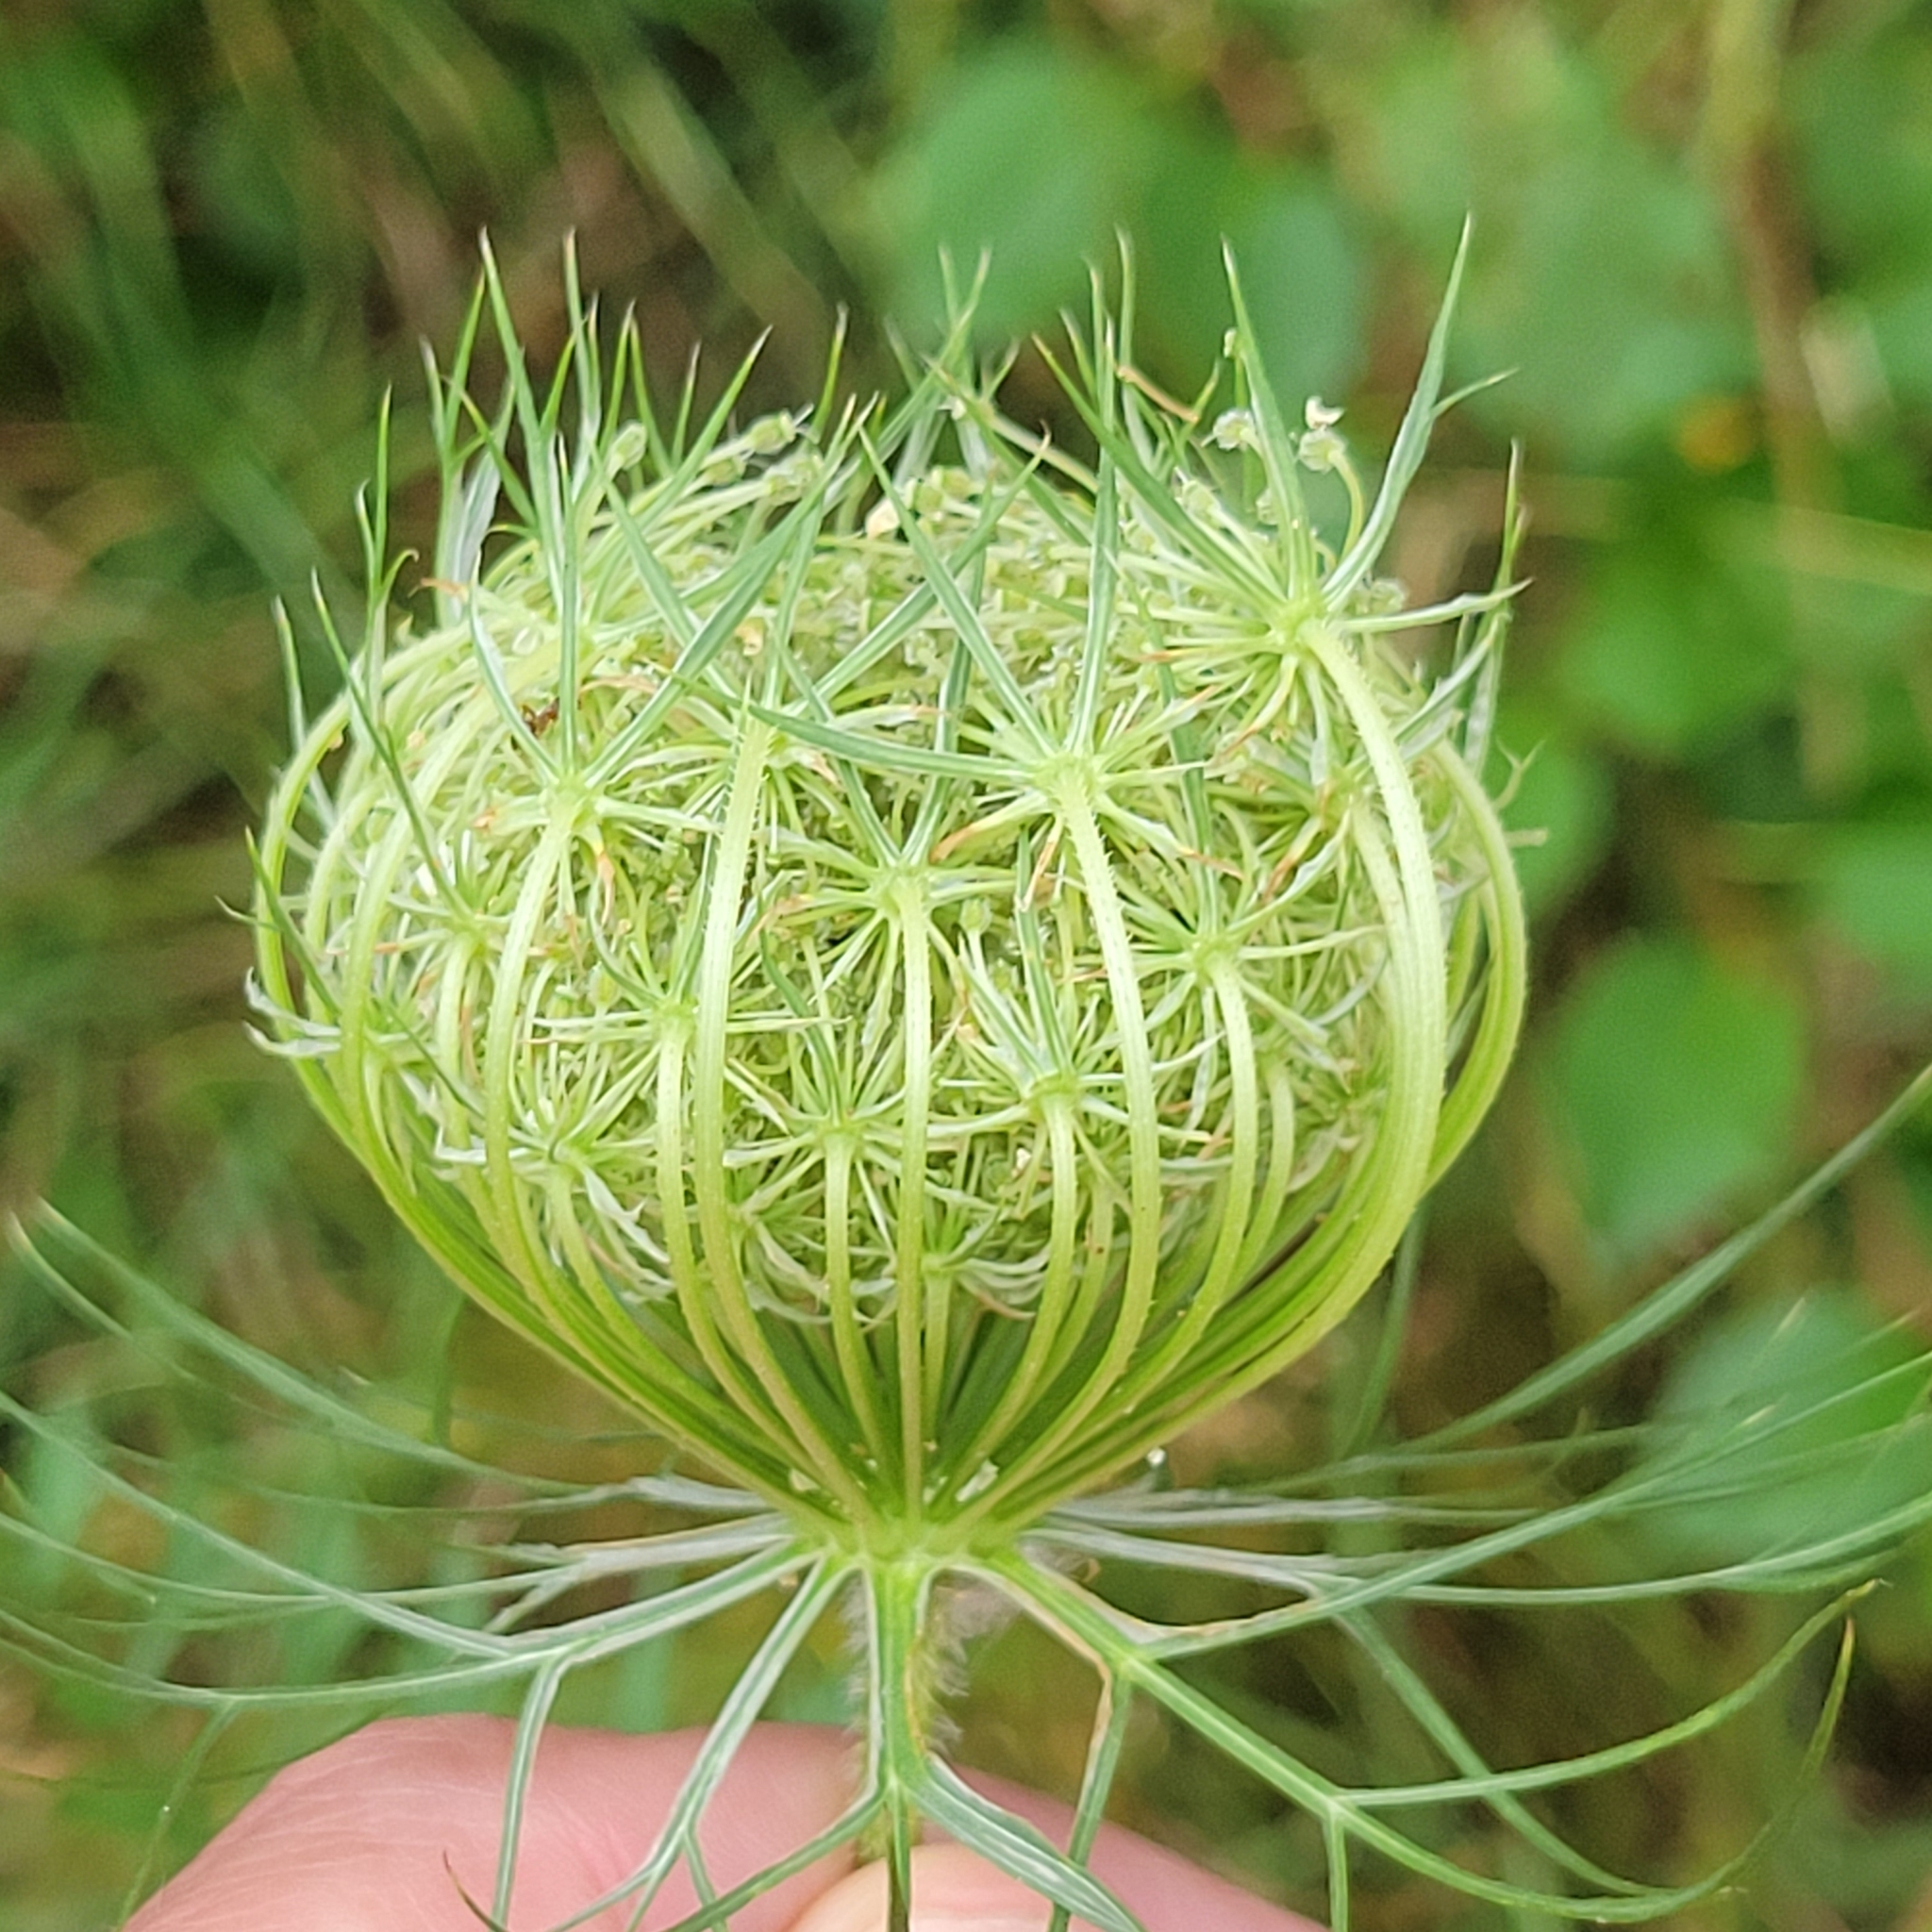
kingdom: Plantae
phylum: Tracheophyta
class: Magnoliopsida
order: Apiales
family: Apiaceae
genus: Daucus
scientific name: Daucus carota
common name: Wild carrot
